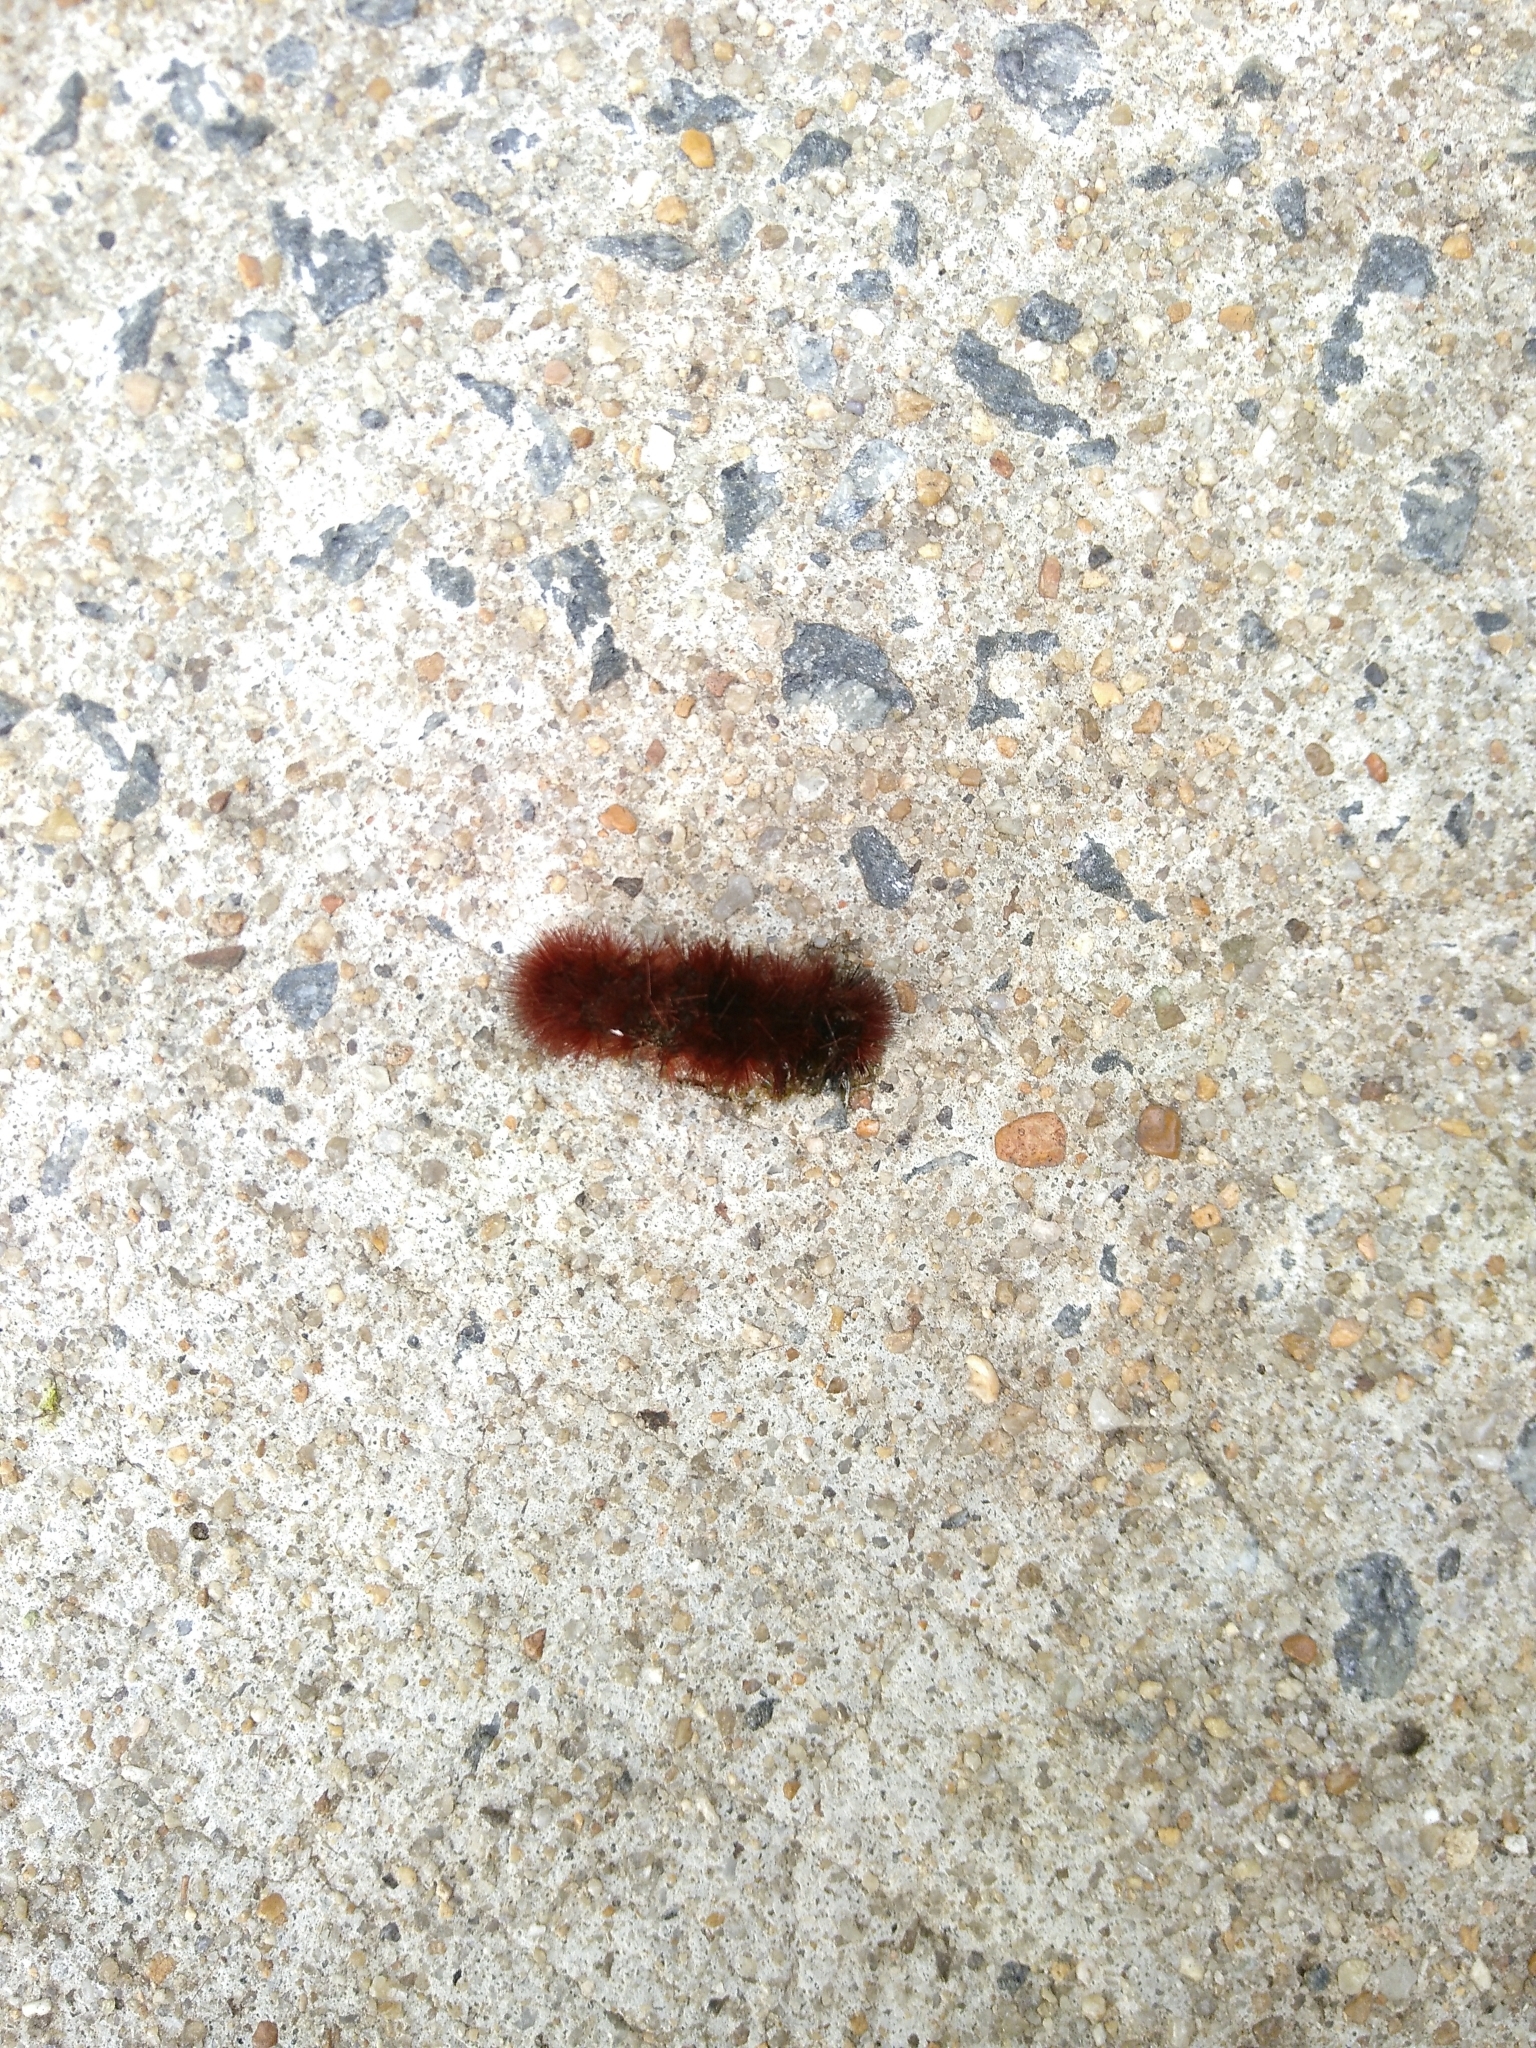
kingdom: Animalia
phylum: Arthropoda
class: Insecta
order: Lepidoptera
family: Erebidae
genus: Pyrrharctia
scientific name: Pyrrharctia isabella
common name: Isabella tiger moth
